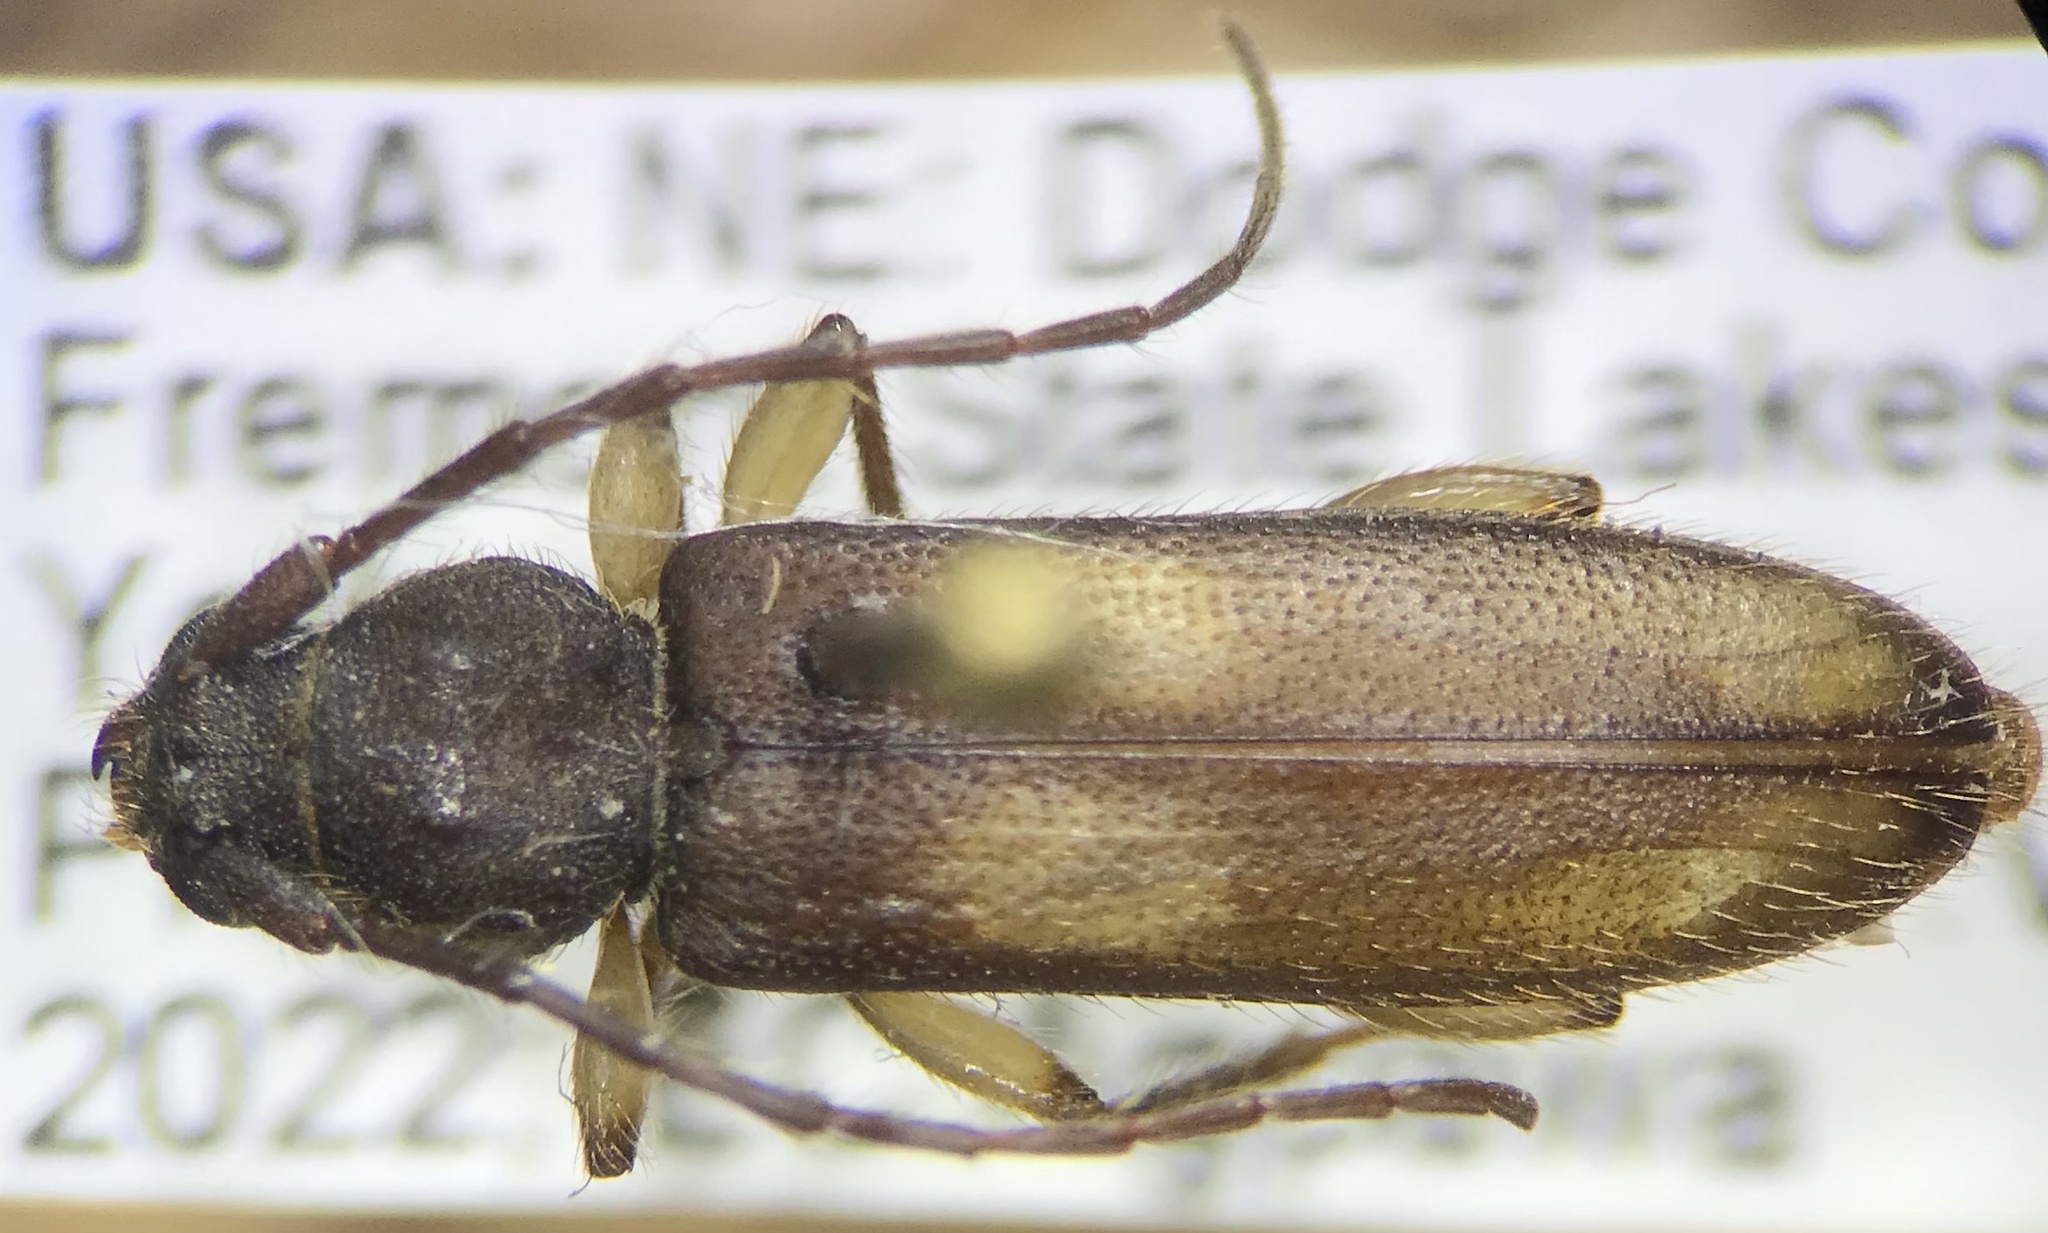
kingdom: Animalia
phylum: Arthropoda
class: Insecta
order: Coleoptera
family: Cerambycidae
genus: Tylonotus
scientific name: Tylonotus bimaculatus
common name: Ash and privet borer
